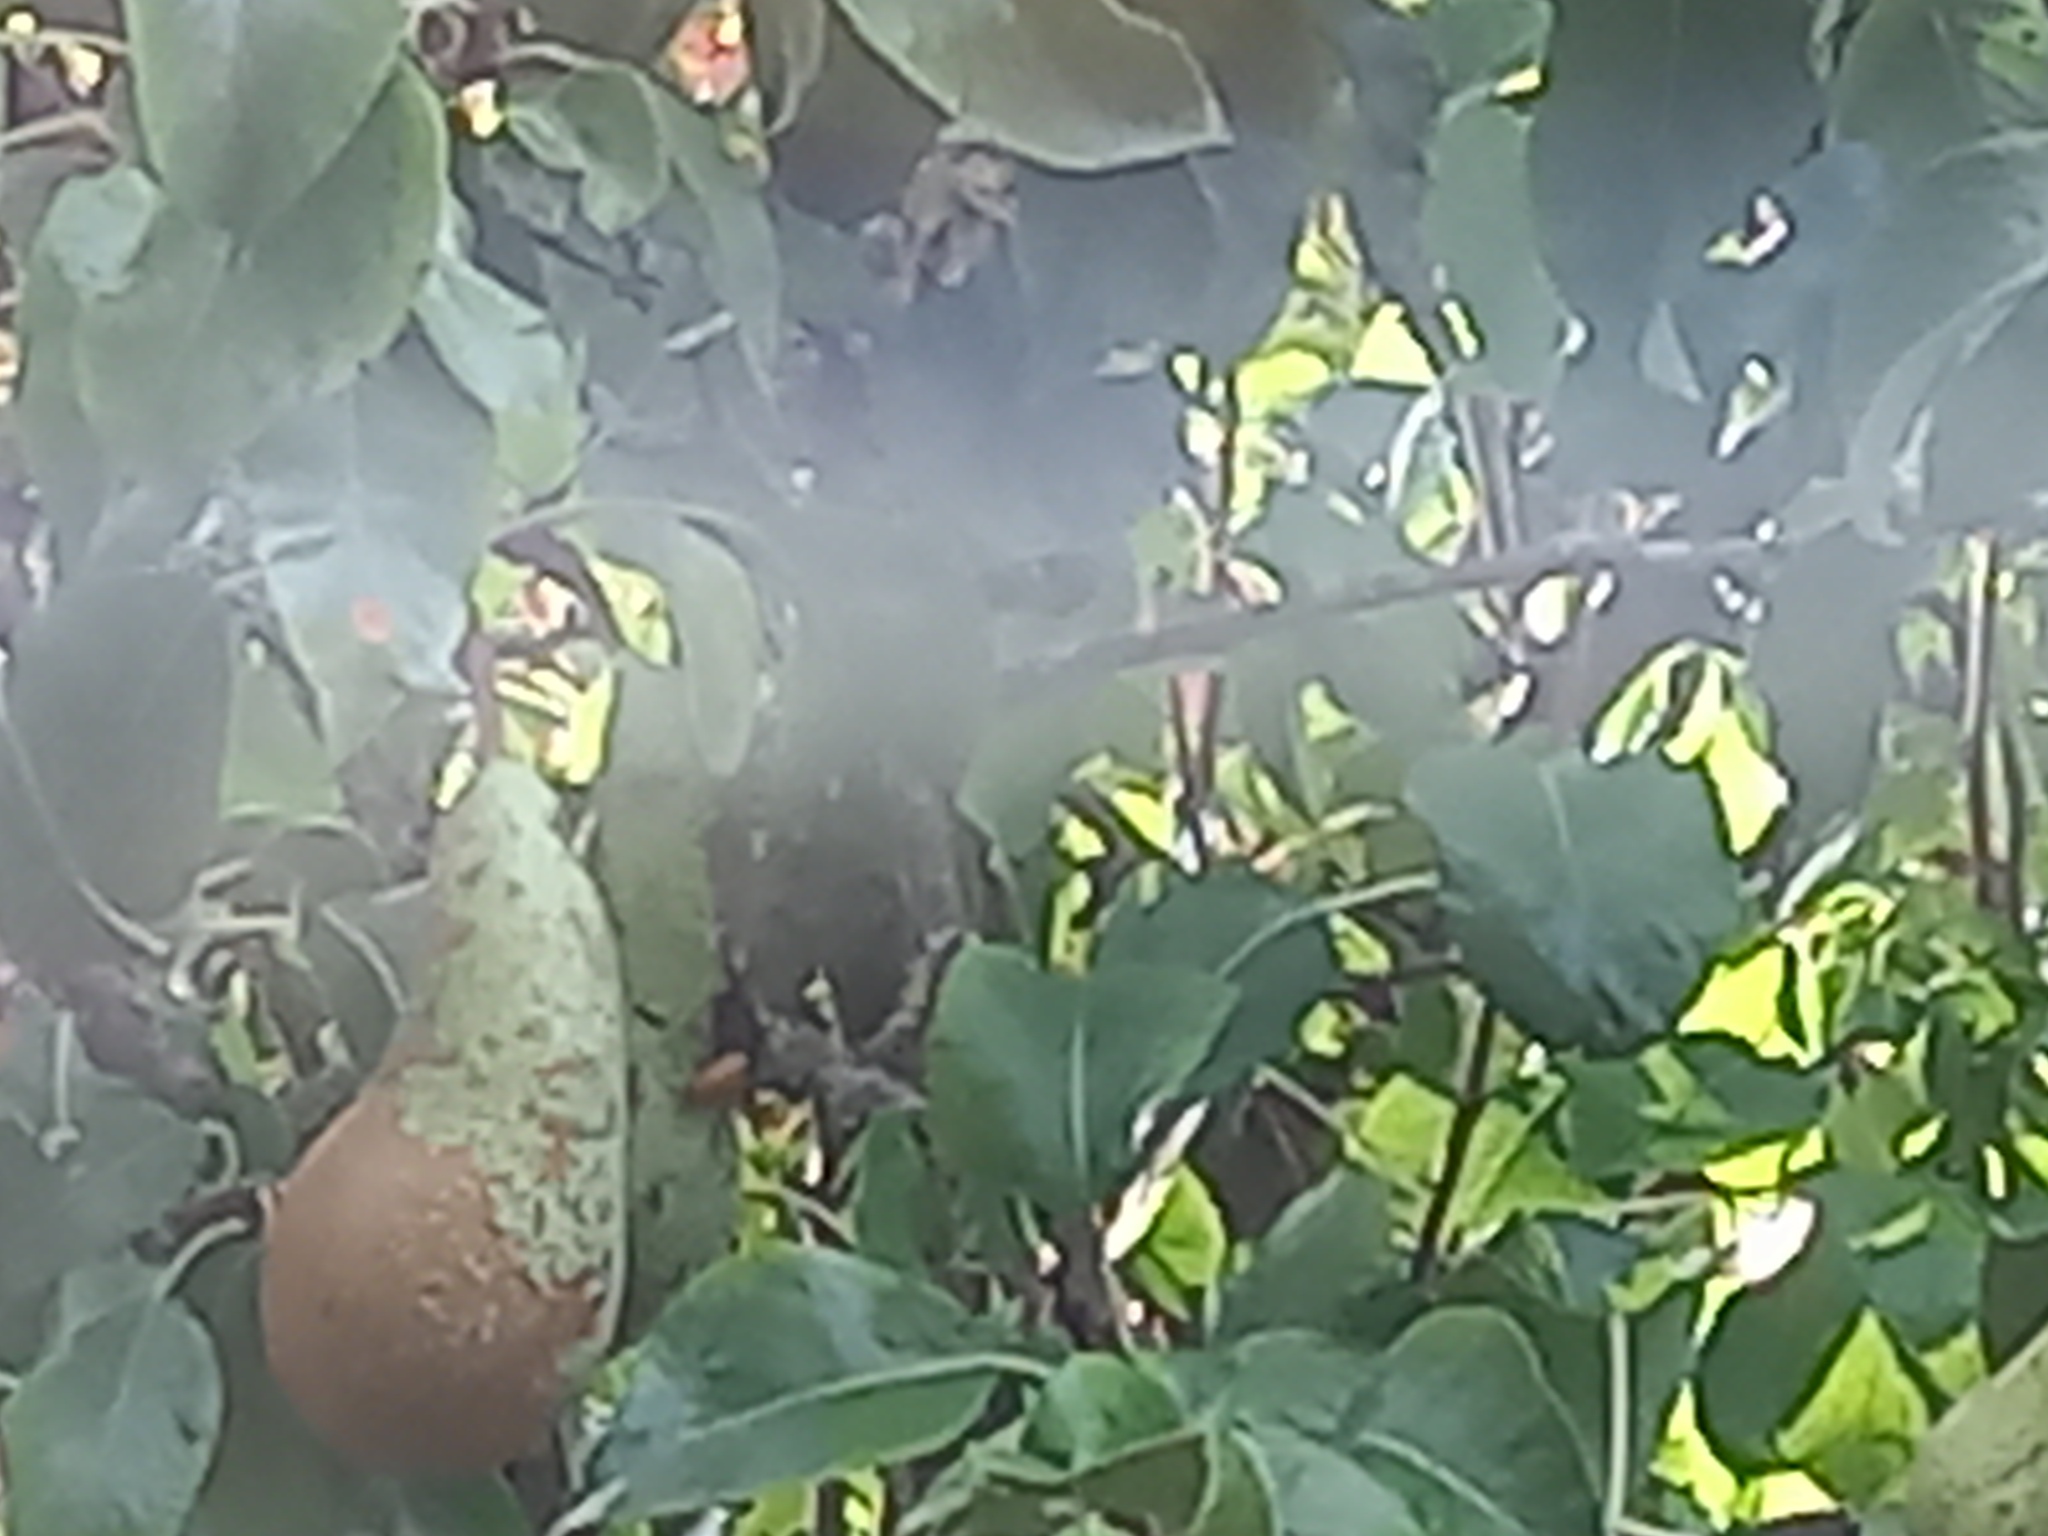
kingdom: Animalia
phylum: Arthropoda
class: Insecta
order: Hymenoptera
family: Vespidae
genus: Vespa
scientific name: Vespa crabro
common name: Hornet
